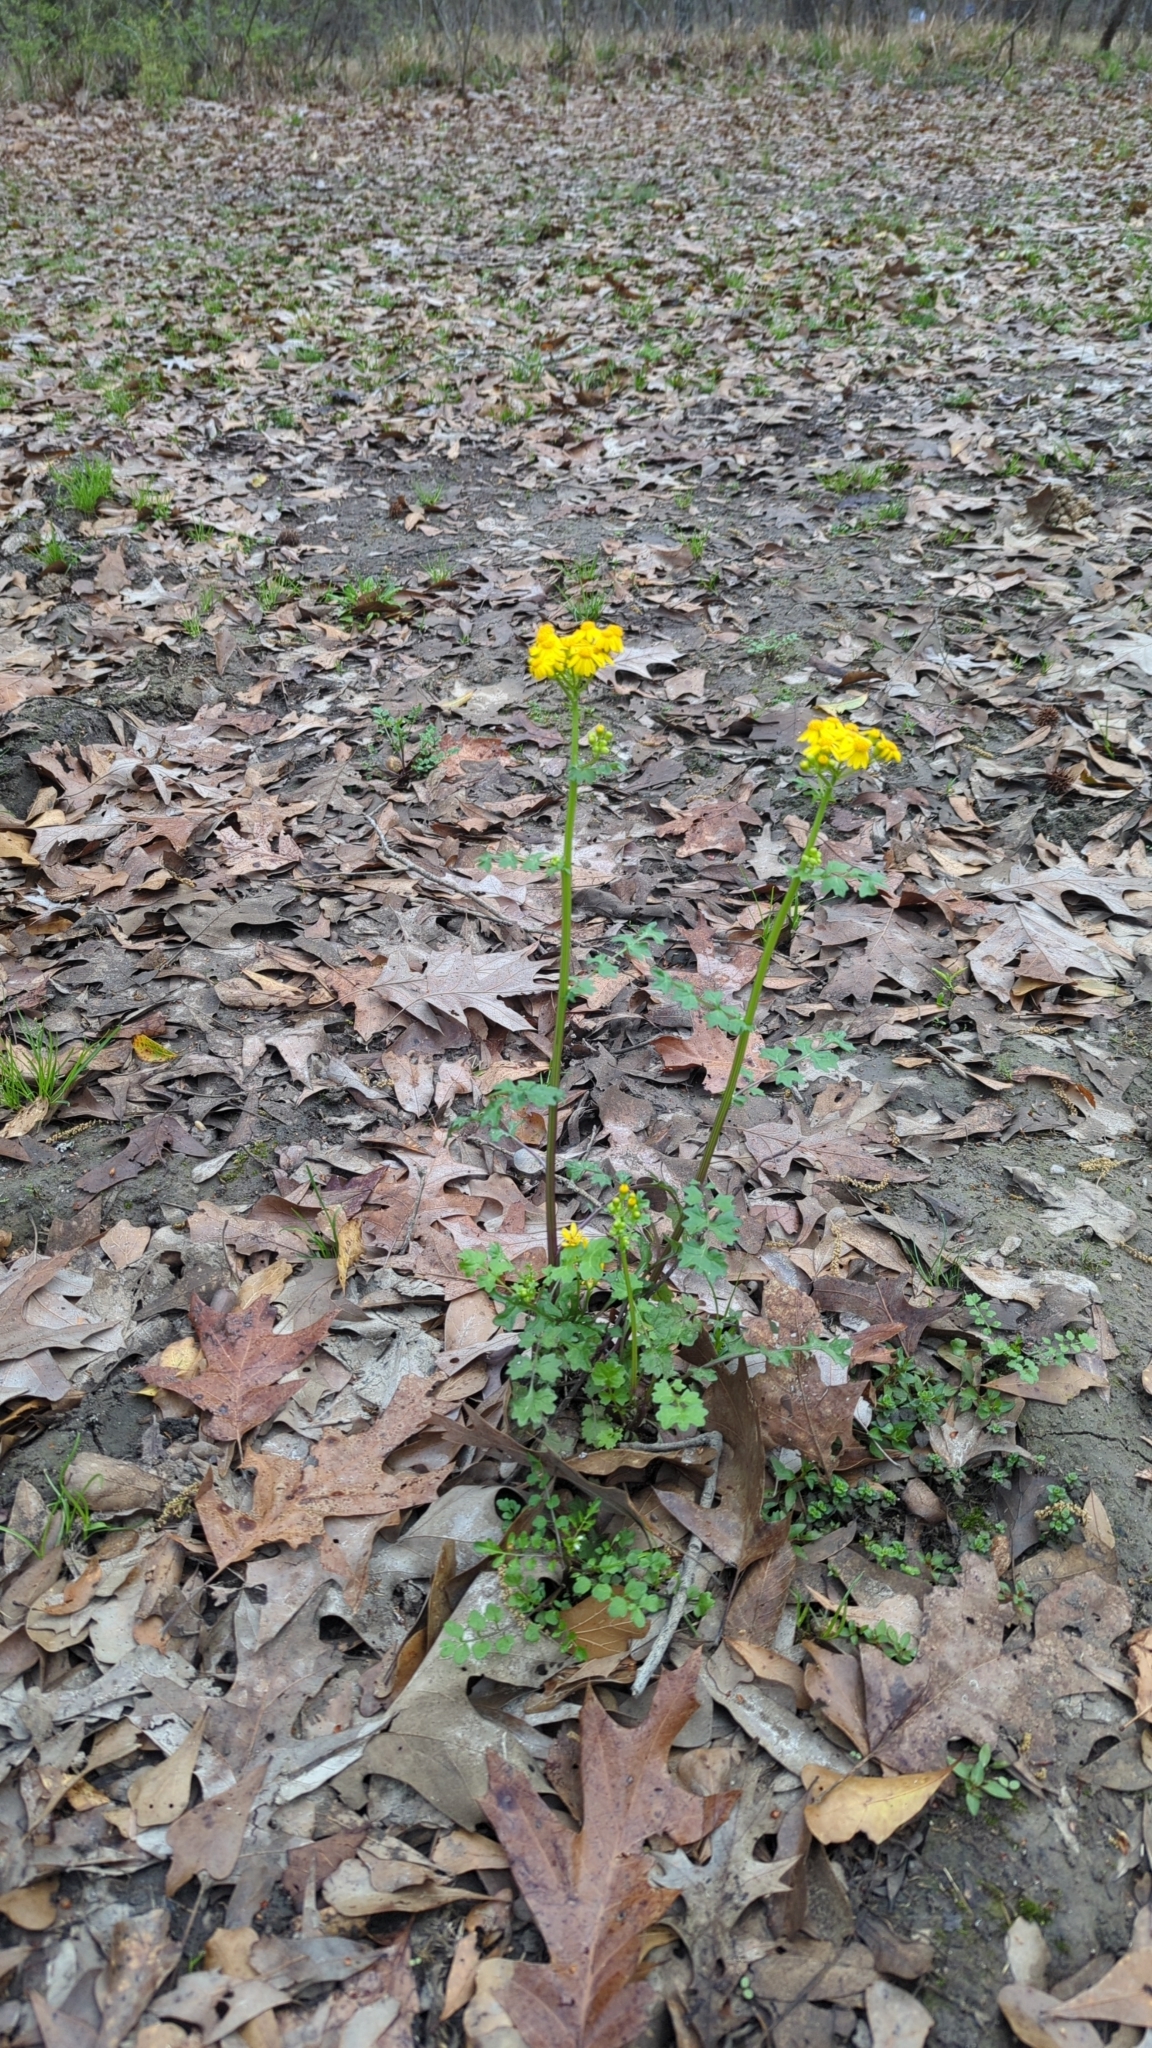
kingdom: Plantae
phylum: Tracheophyta
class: Magnoliopsida
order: Asterales
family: Asteraceae
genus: Packera
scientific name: Packera glabella
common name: Butterweed
